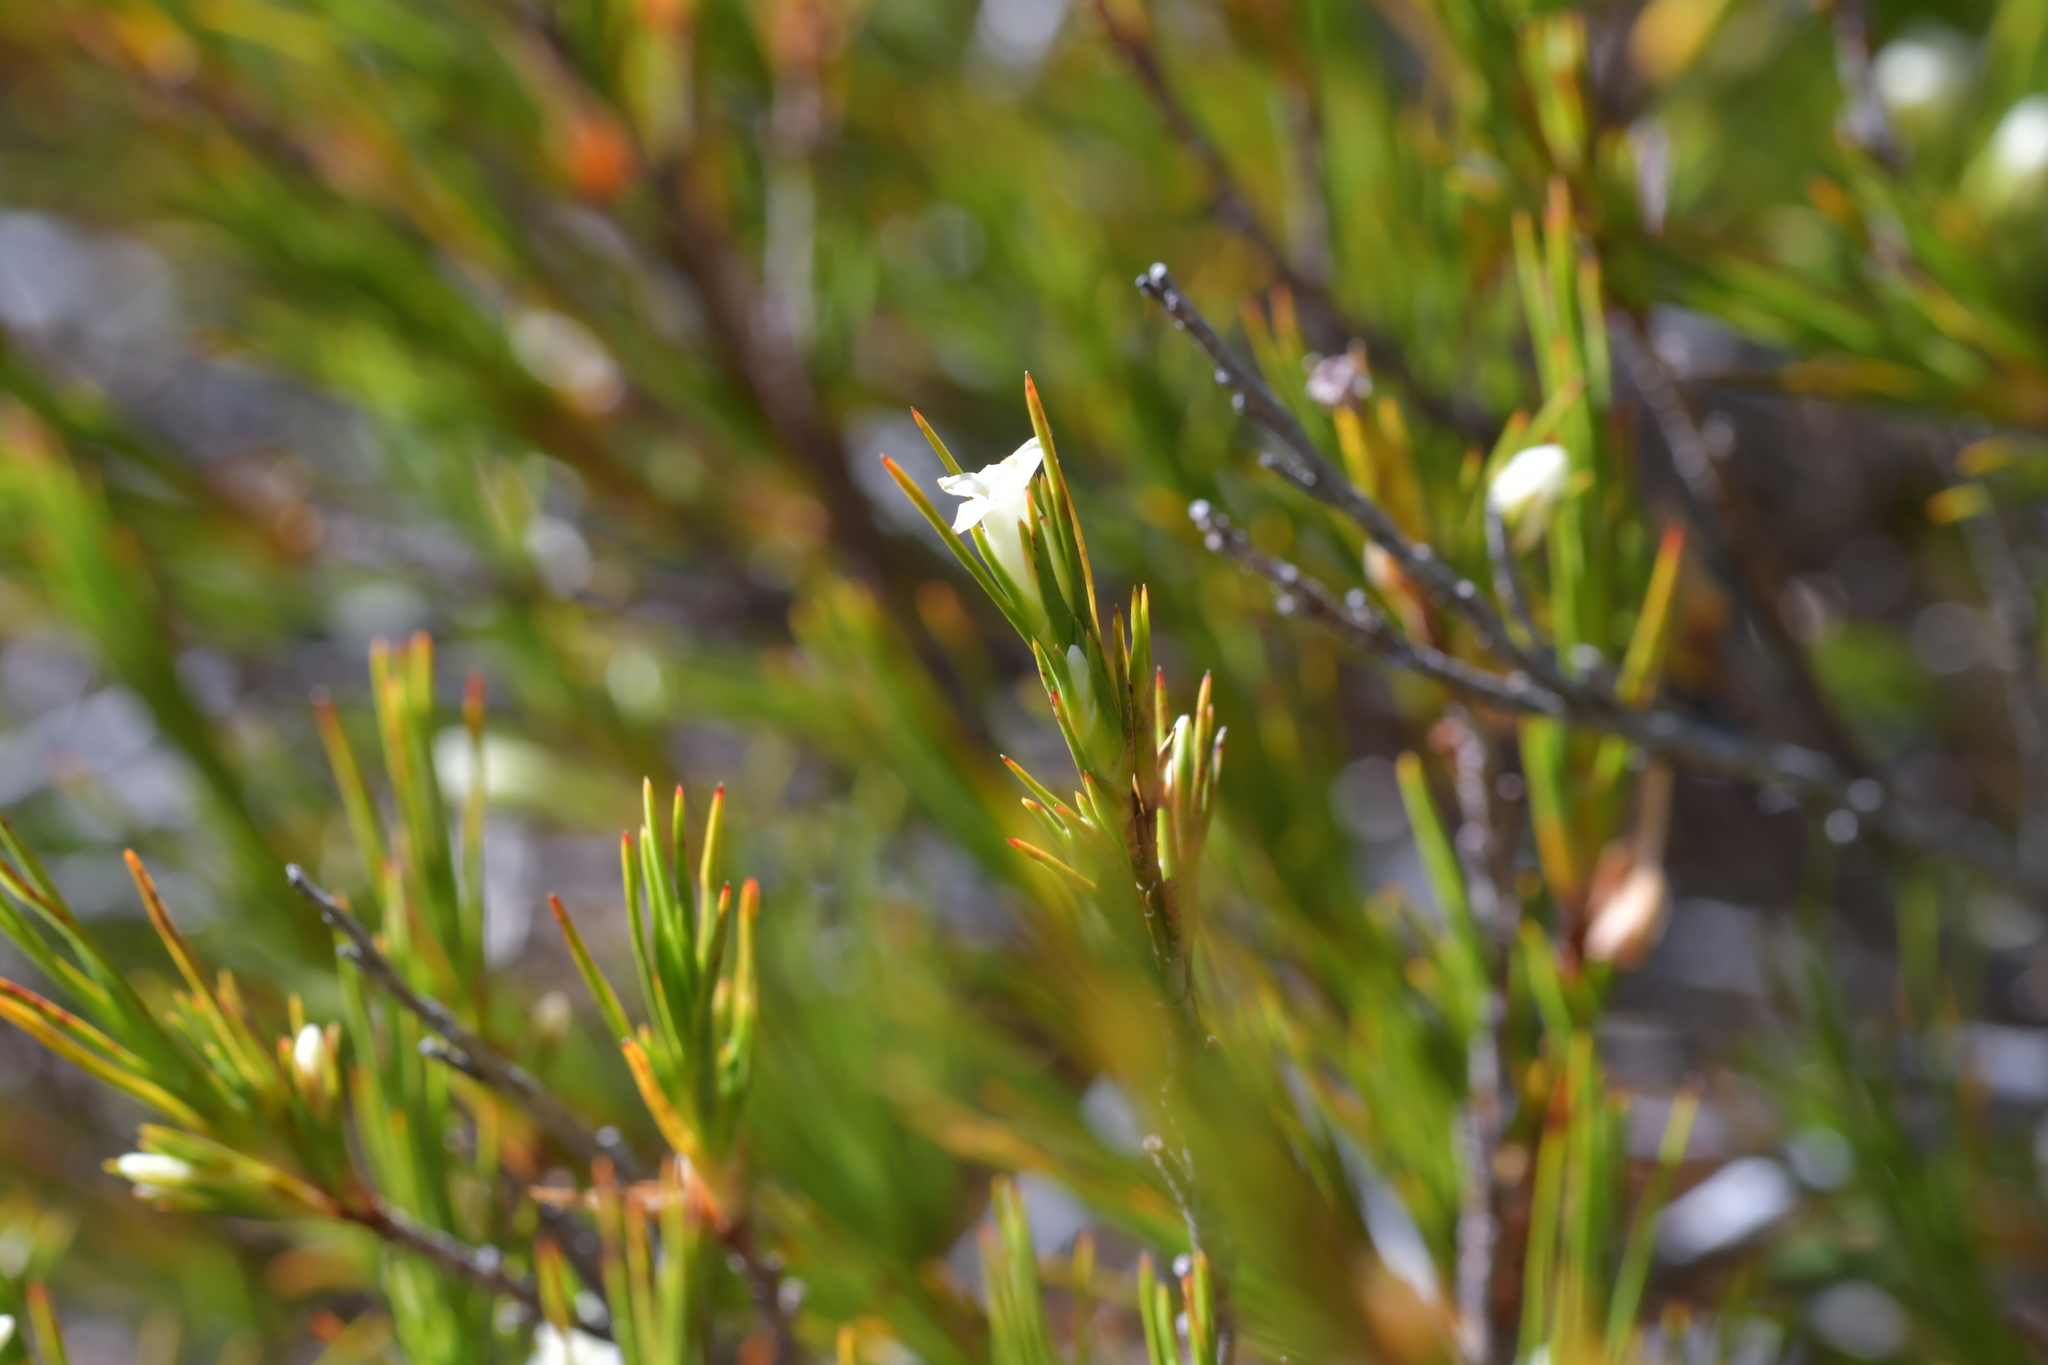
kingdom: Plantae
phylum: Tracheophyta
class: Magnoliopsida
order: Ericales
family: Ericaceae
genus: Dracophyllum
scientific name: Dracophyllum rosmarinifolium
